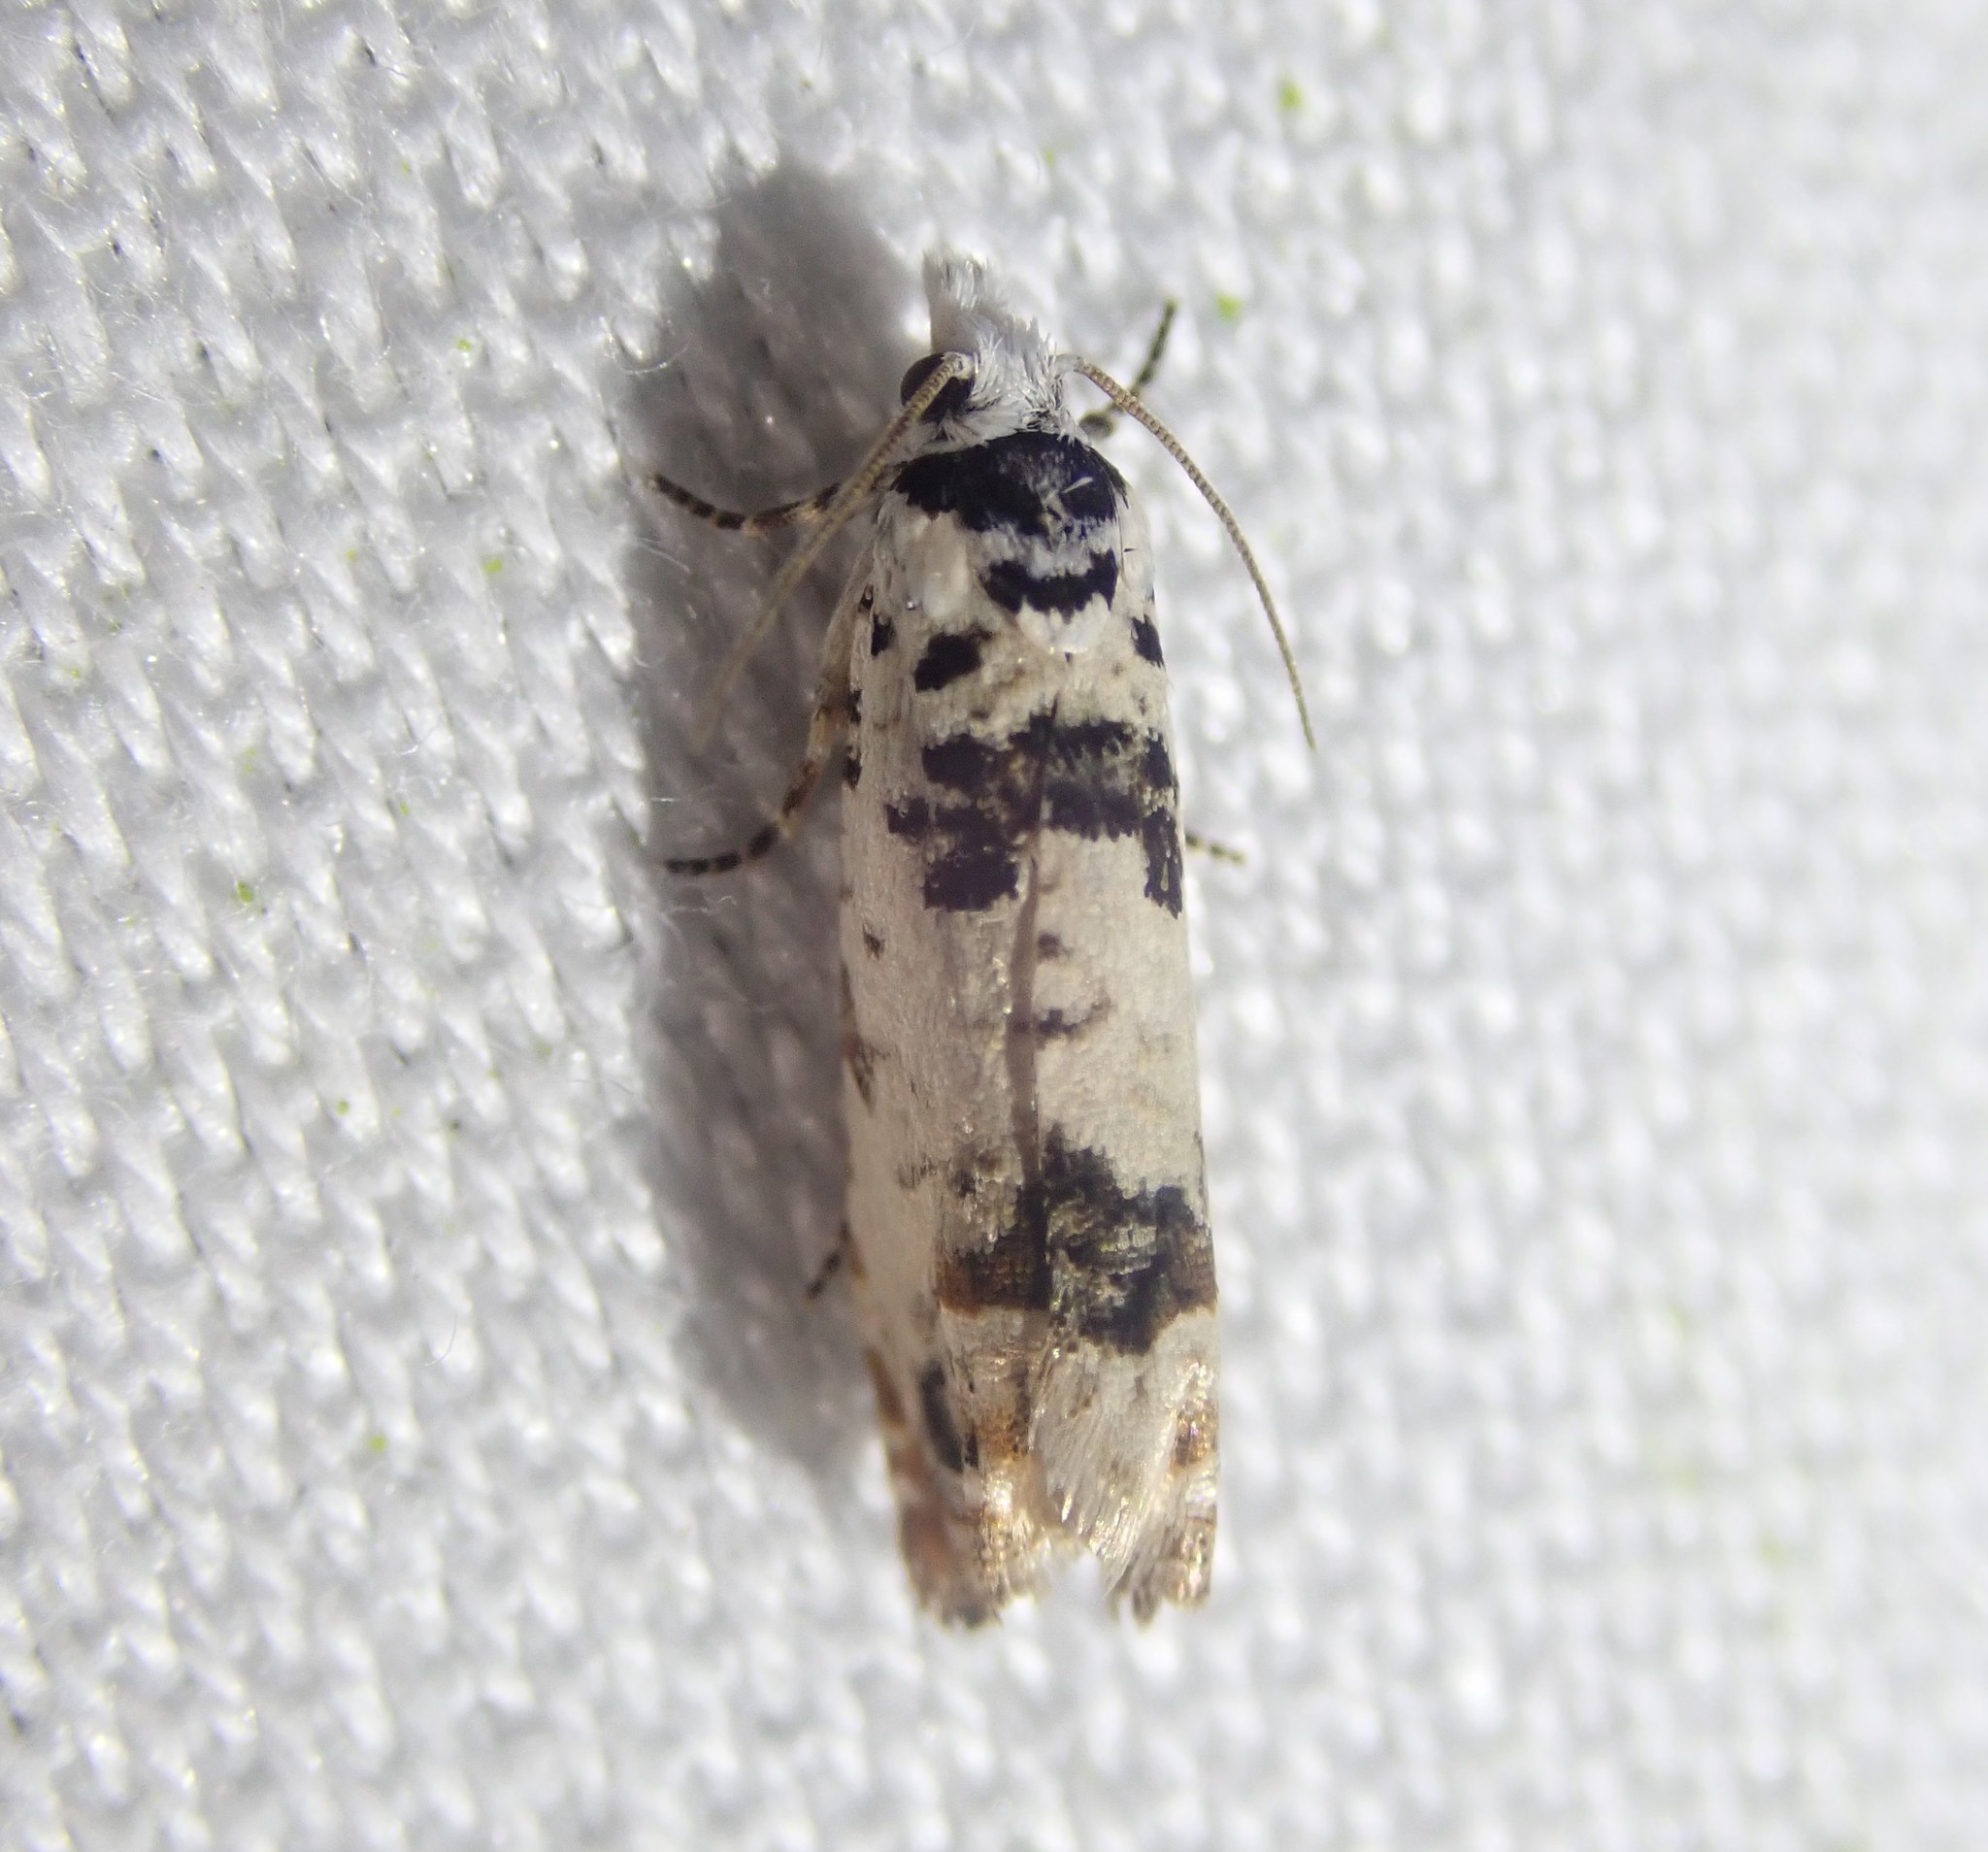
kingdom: Animalia
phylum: Arthropoda
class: Insecta
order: Lepidoptera
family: Tortricidae
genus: Eucosma
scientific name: Eucosma campoliliana
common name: Marbled bell
